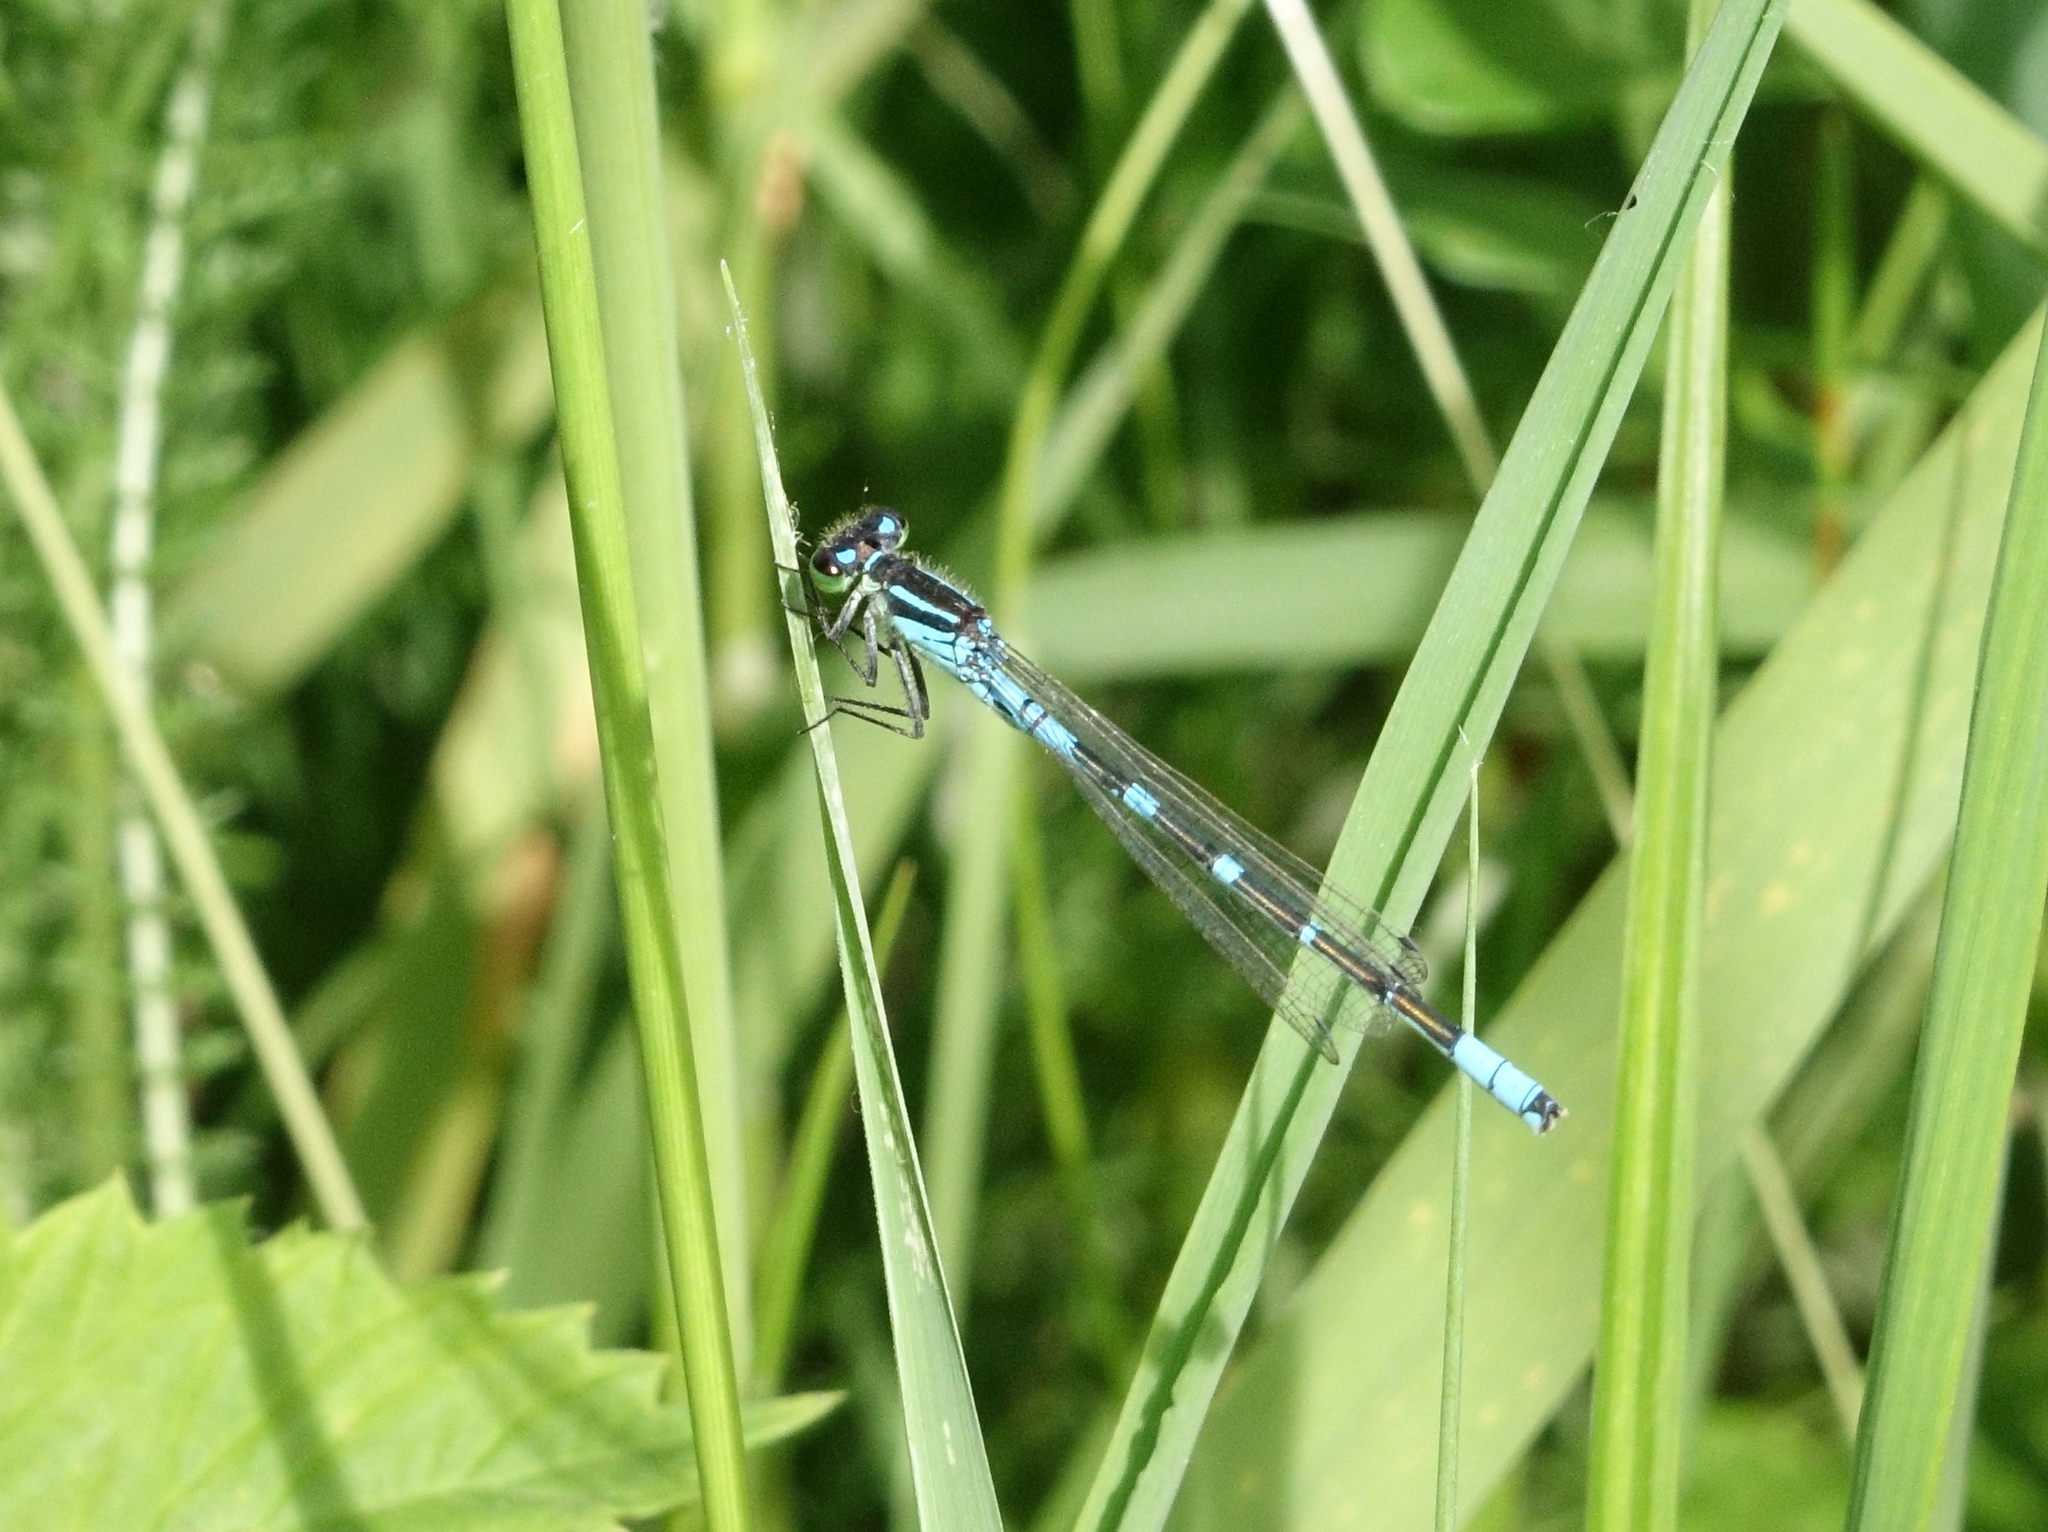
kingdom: Animalia
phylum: Arthropoda
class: Insecta
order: Odonata
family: Coenagrionidae
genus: Coenagrion
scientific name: Coenagrion lunulatum
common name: Irish damselfly
